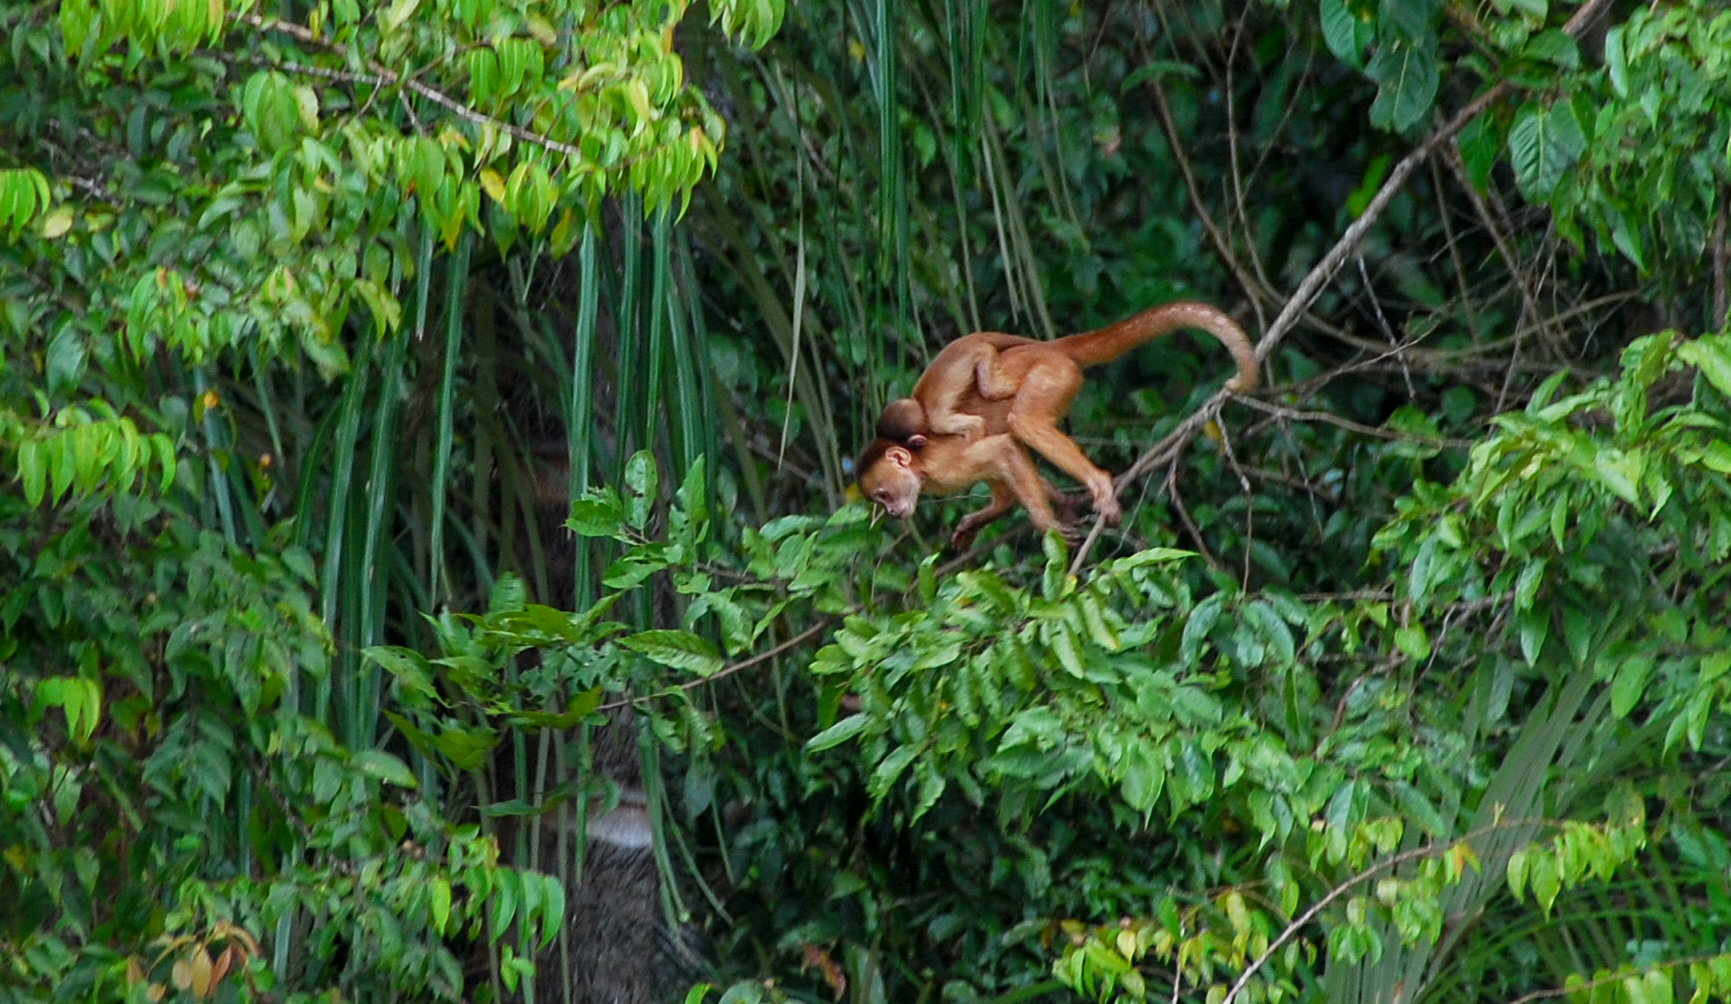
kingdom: Animalia
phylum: Chordata
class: Mammalia
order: Primates
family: Cebidae
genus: Cebus
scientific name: Cebus unicolor
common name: Spix's white-fronted capuchin
